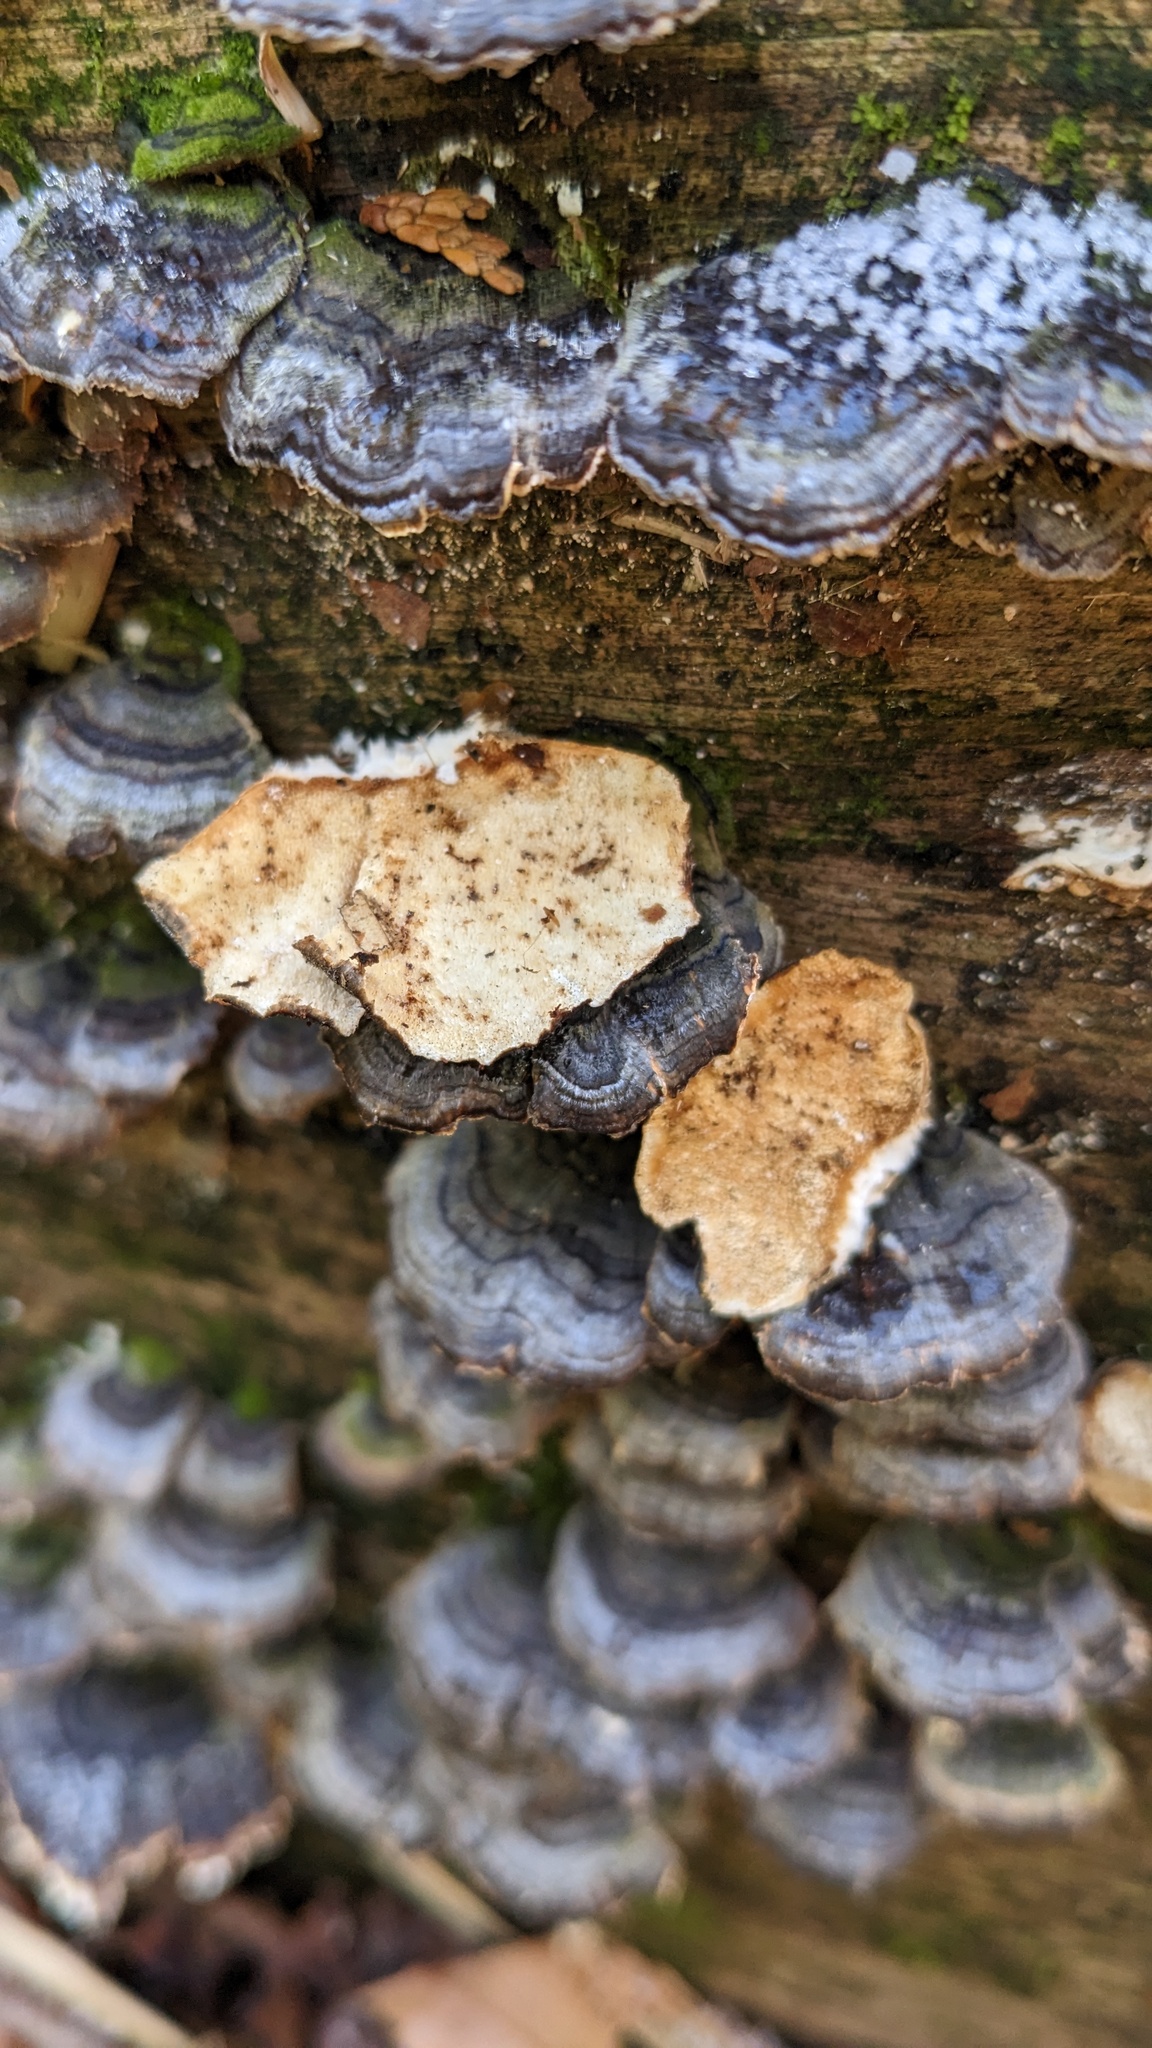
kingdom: Fungi
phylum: Basidiomycota
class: Agaricomycetes
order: Polyporales
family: Polyporaceae
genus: Trametes
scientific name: Trametes versicolor
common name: Turkeytail
